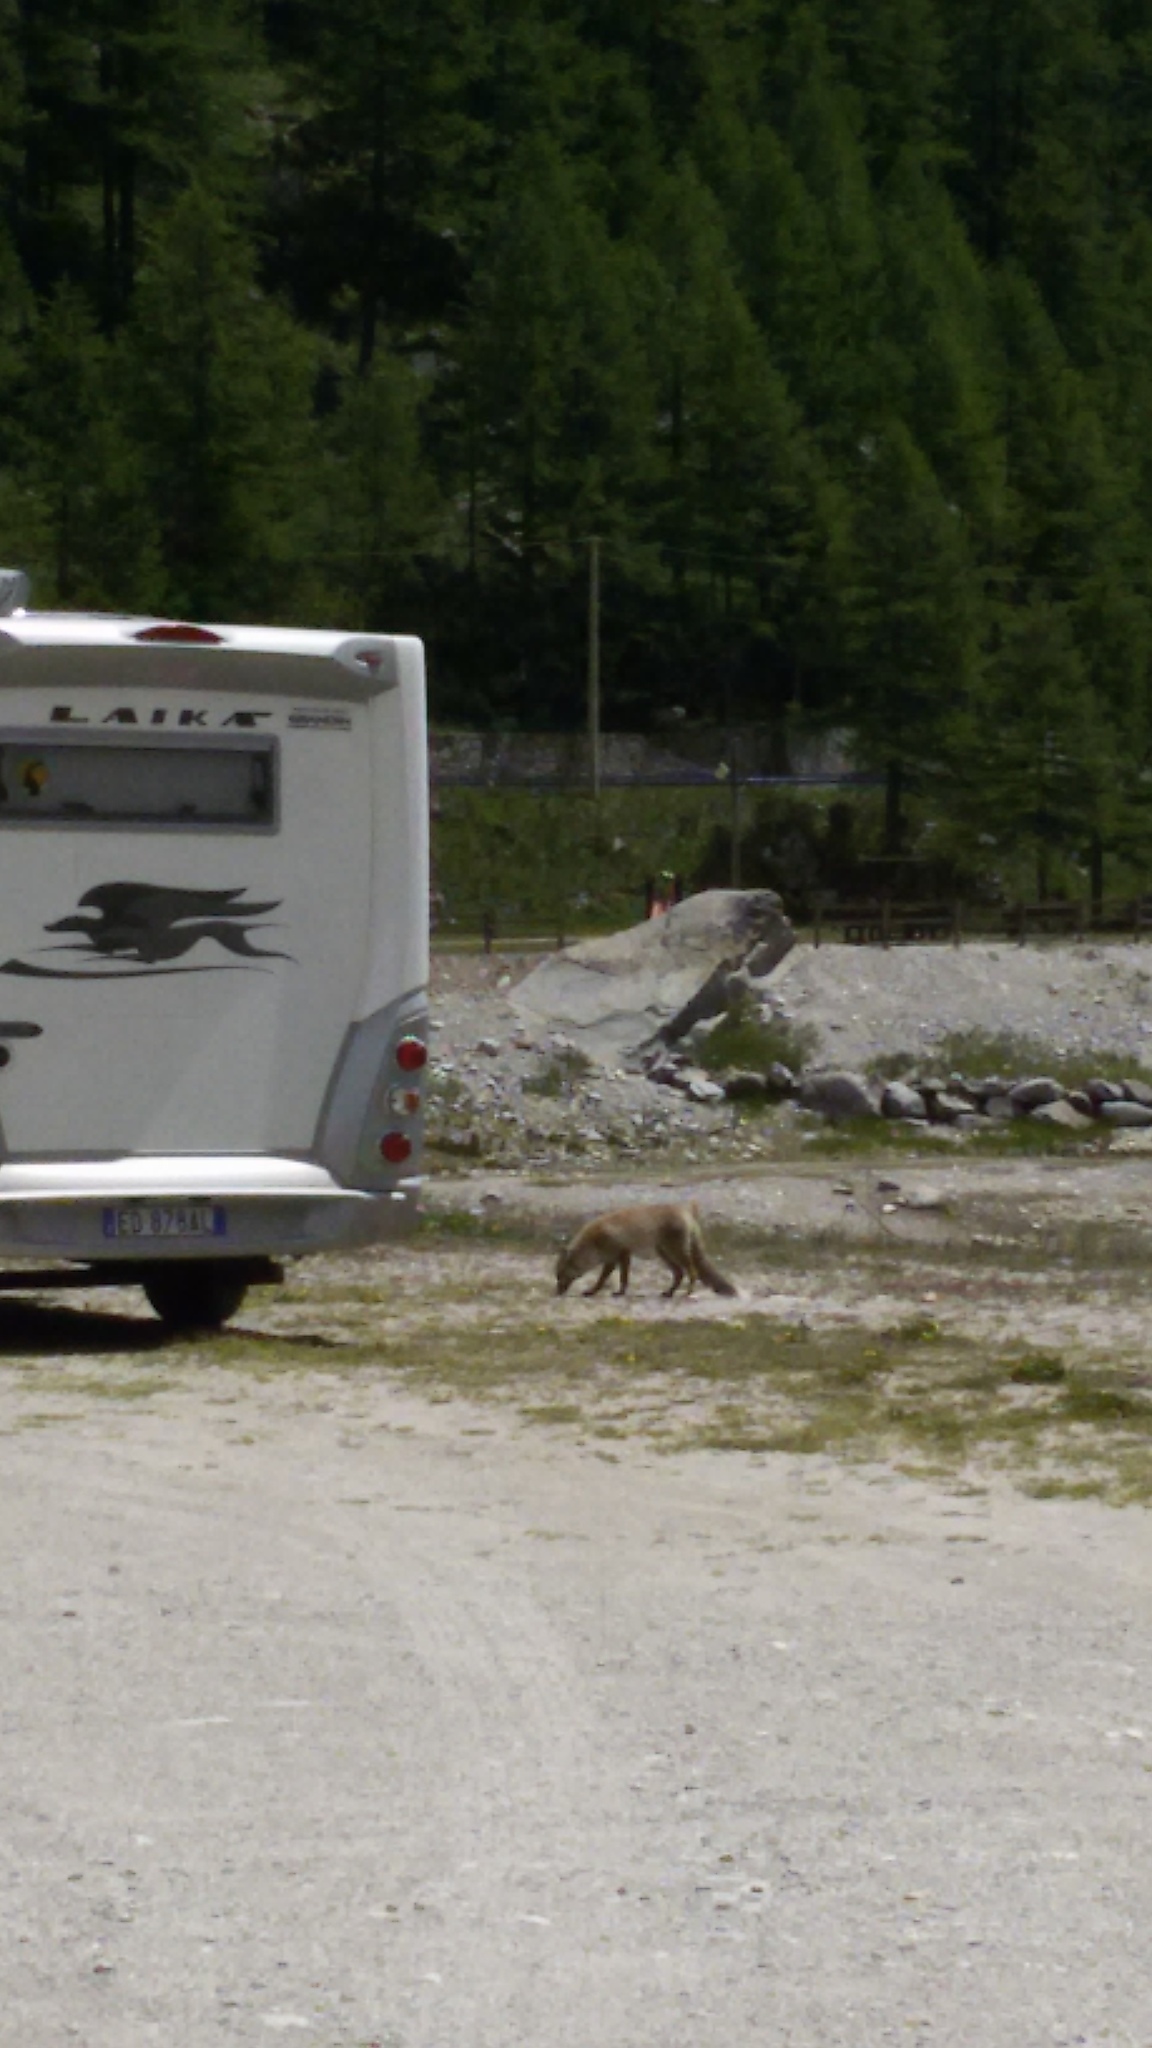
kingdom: Animalia
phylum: Chordata
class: Mammalia
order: Carnivora
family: Canidae
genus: Vulpes
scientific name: Vulpes vulpes
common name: Red fox
